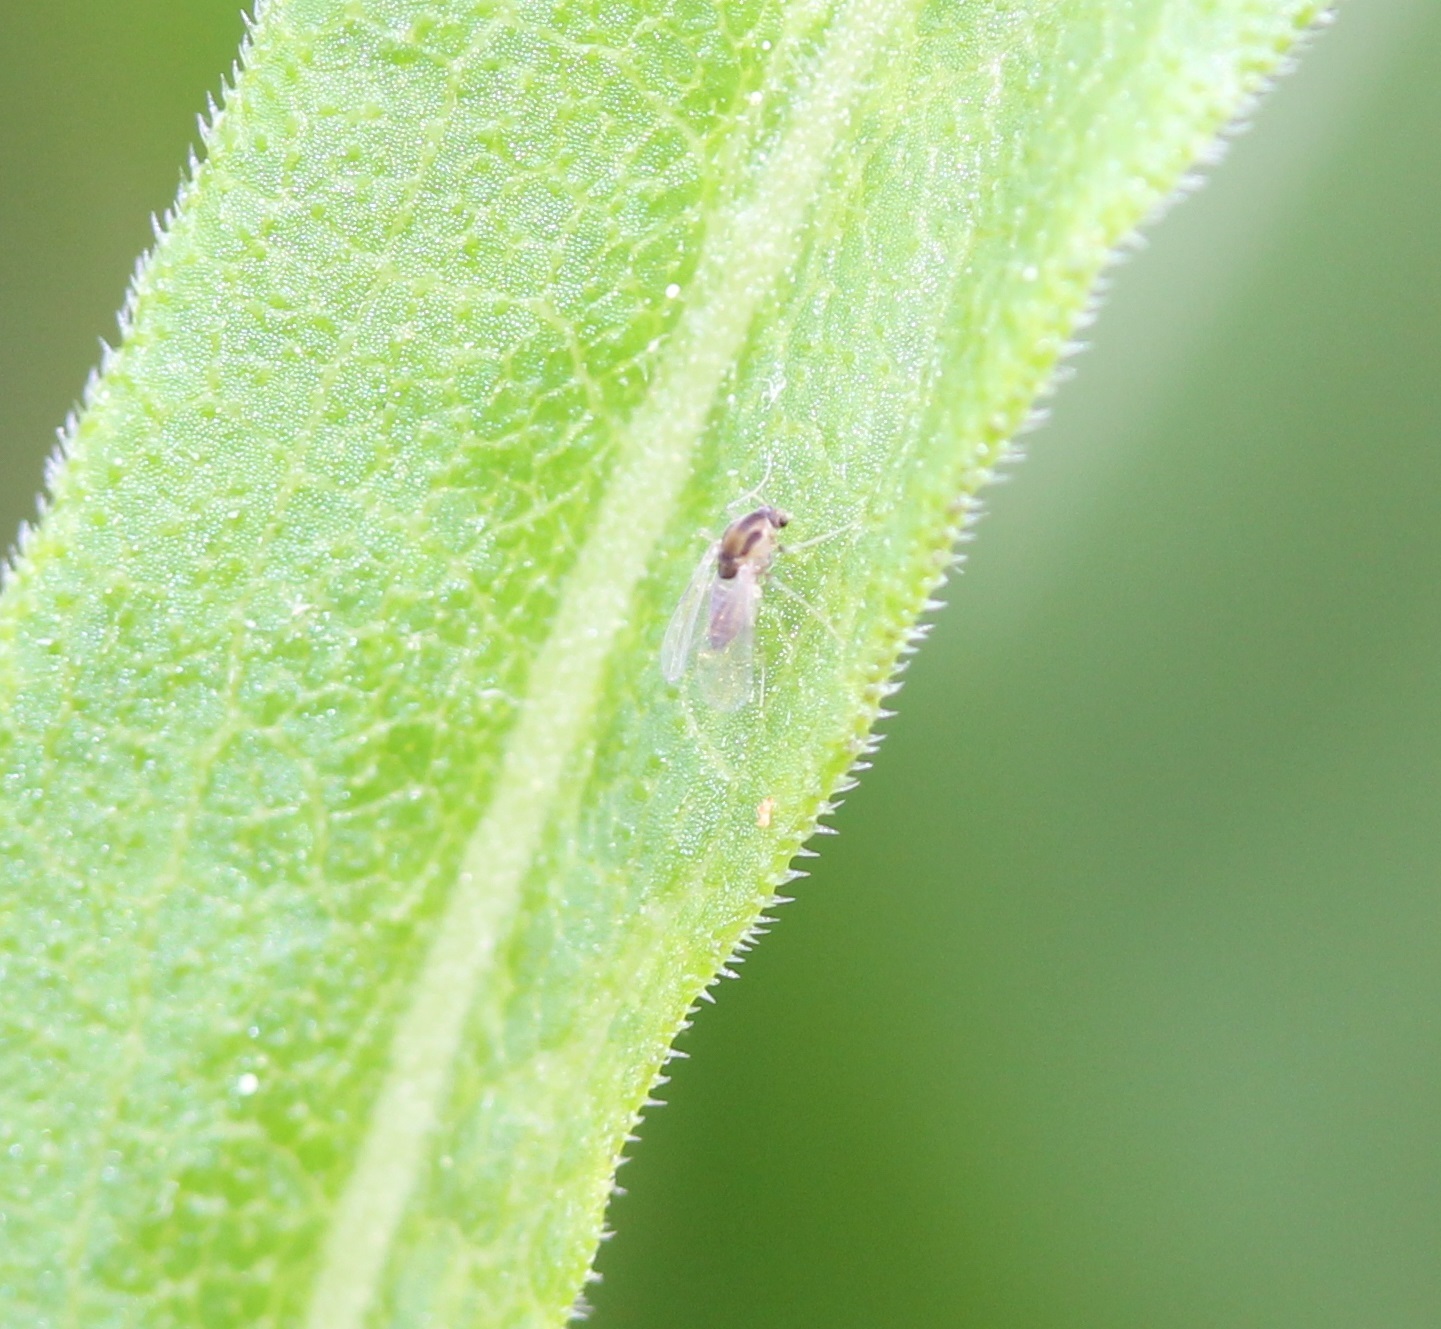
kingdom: Animalia
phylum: Arthropoda
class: Insecta
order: Diptera
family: Chironomidae
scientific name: Chironomidae
